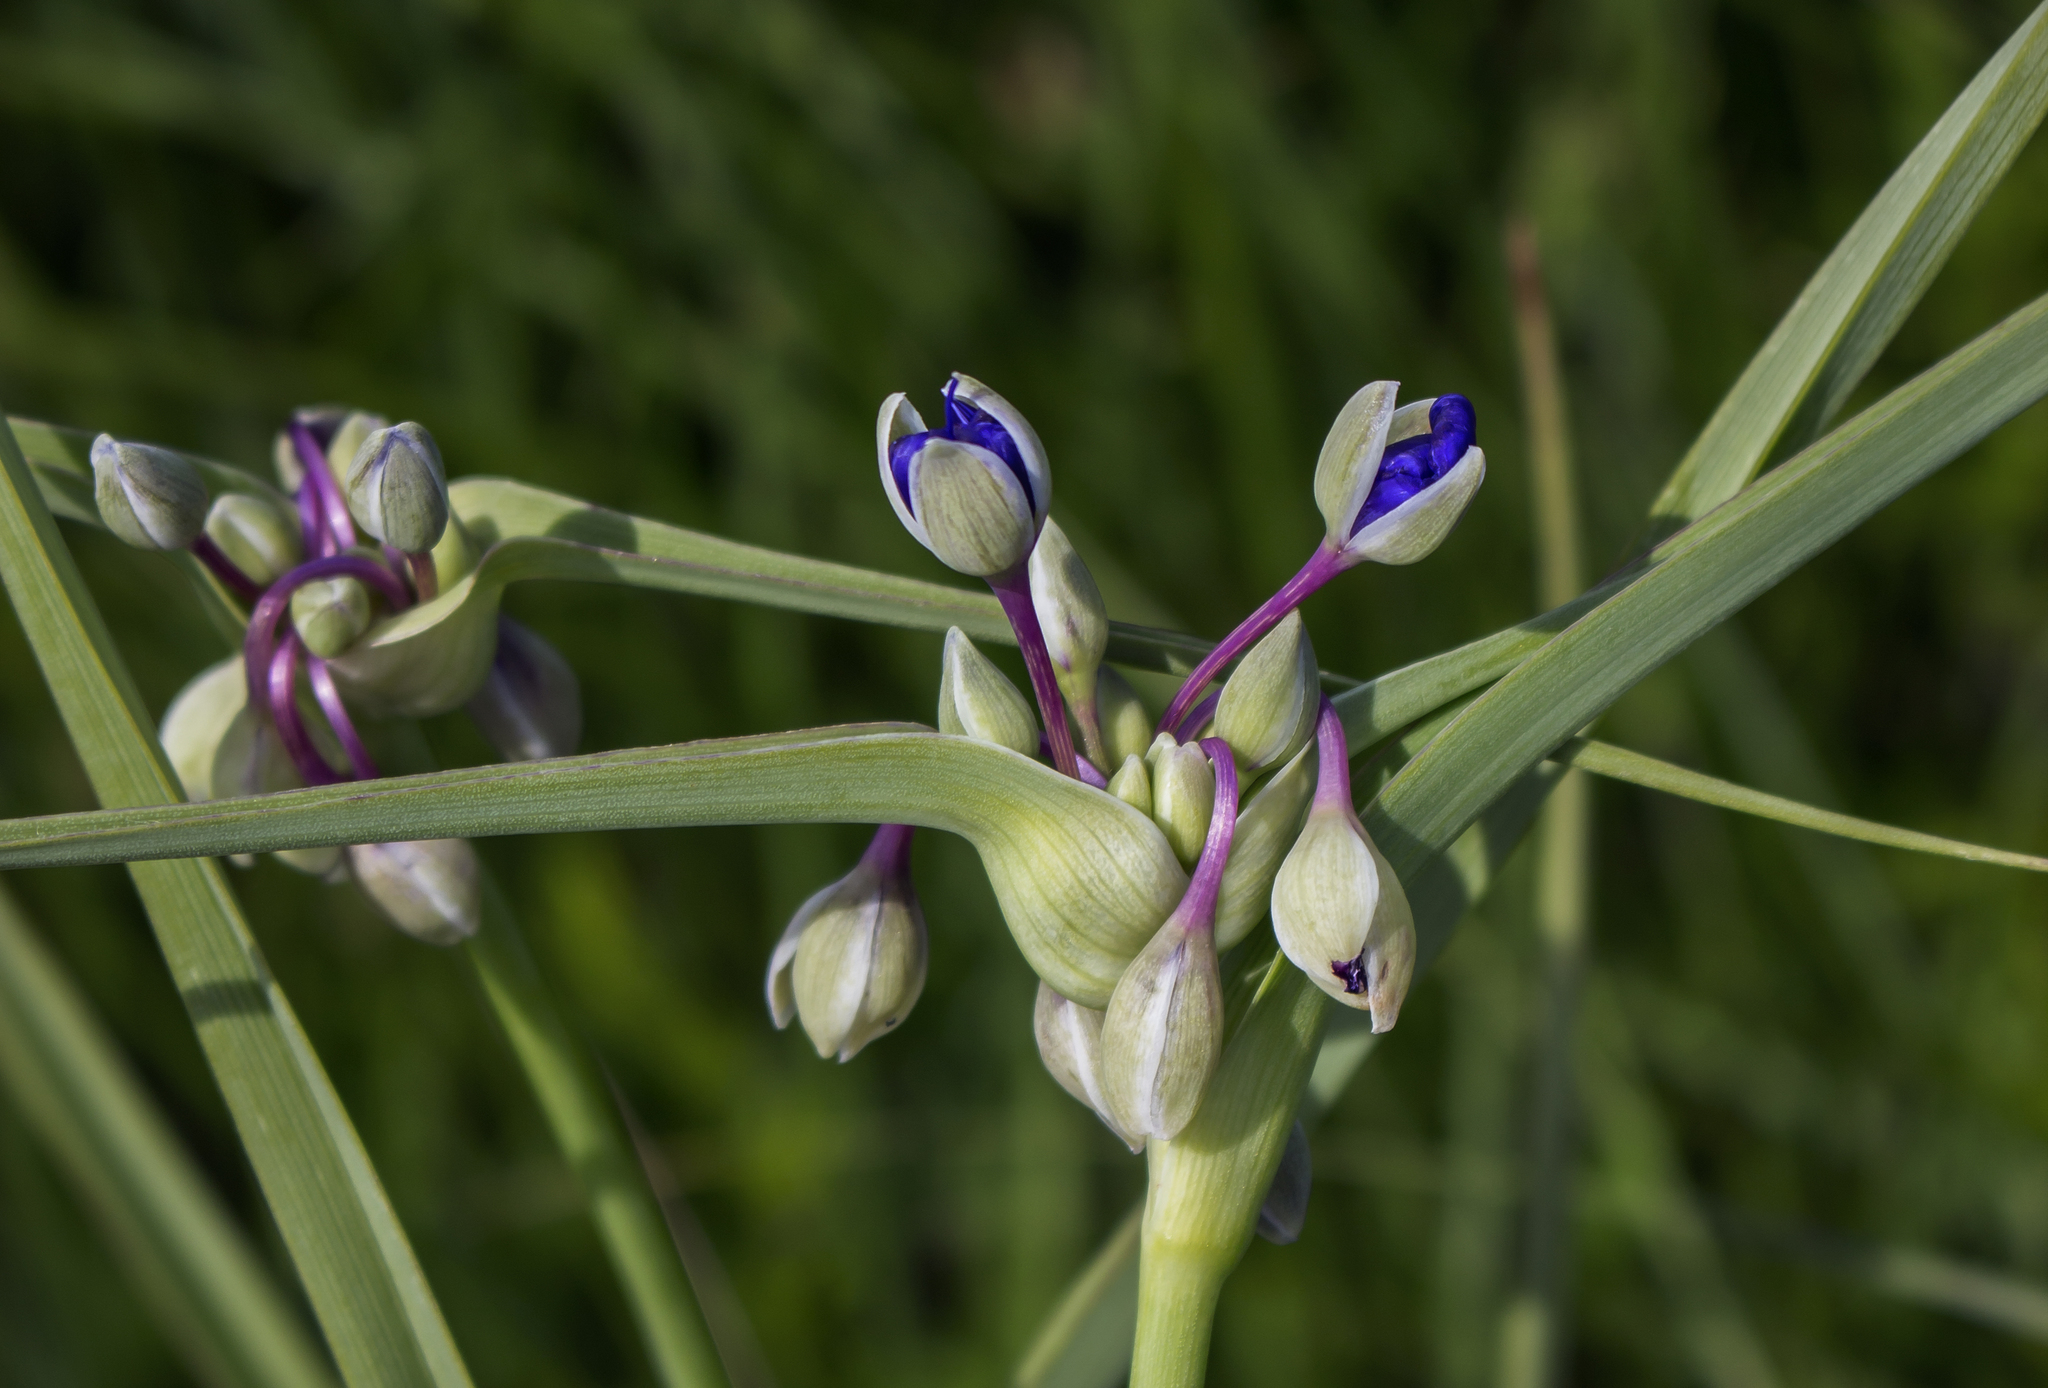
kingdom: Plantae
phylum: Tracheophyta
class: Liliopsida
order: Commelinales
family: Commelinaceae
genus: Tradescantia
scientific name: Tradescantia ohiensis
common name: Ohio spiderwort
